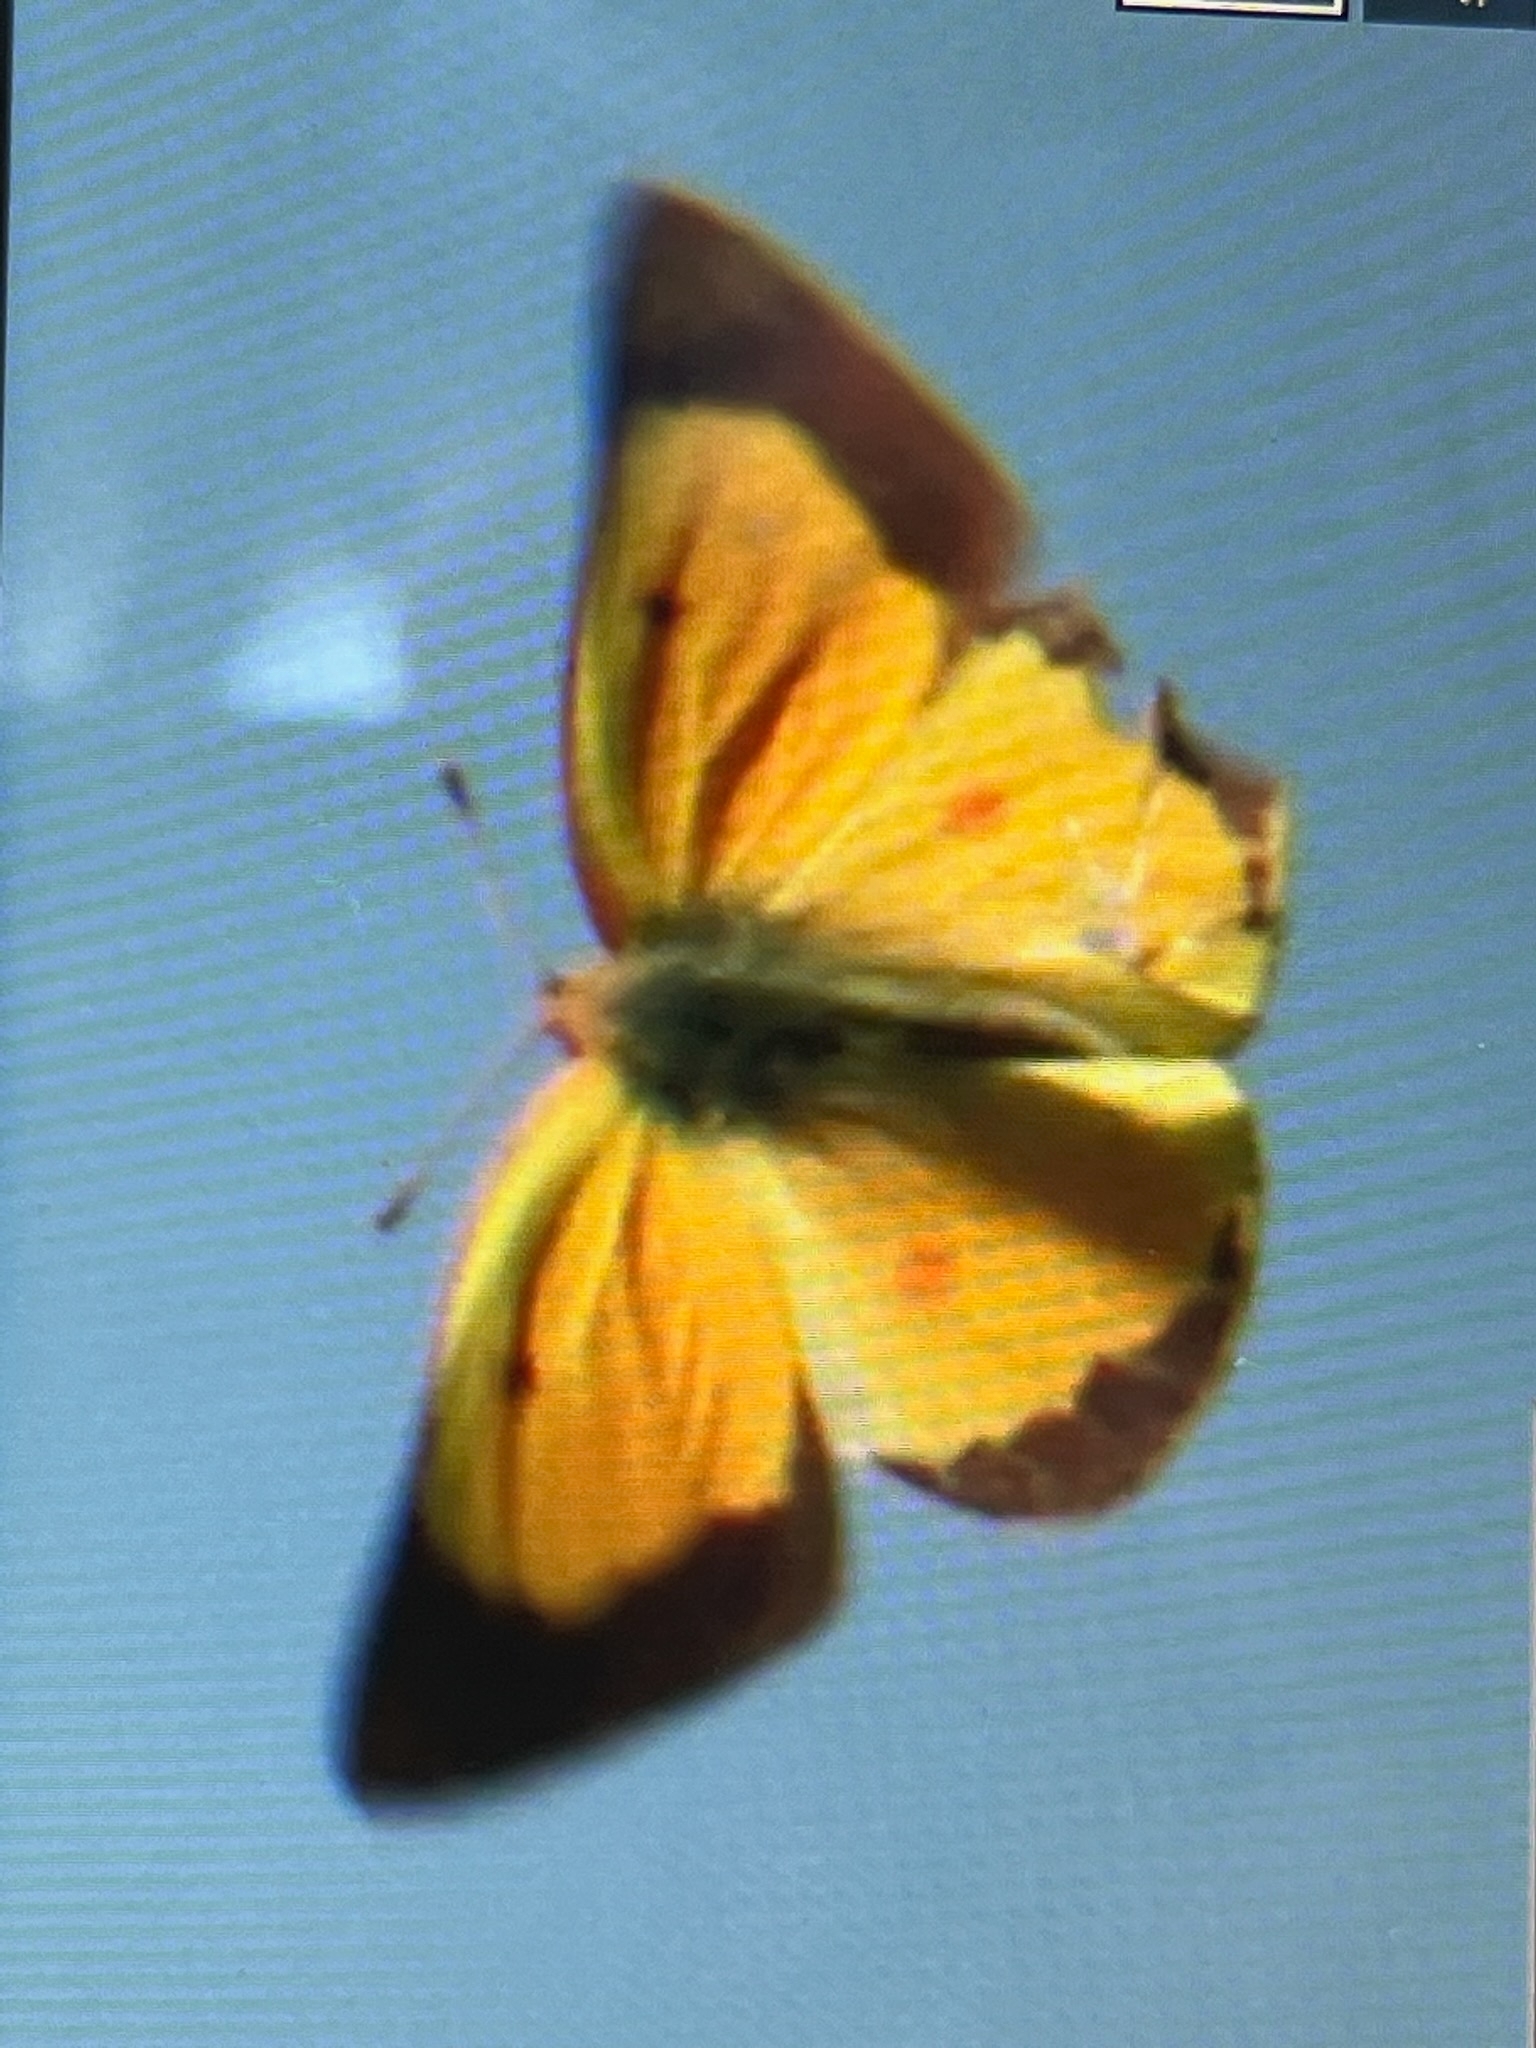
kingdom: Animalia
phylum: Arthropoda
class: Insecta
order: Lepidoptera
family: Pieridae
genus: Colias
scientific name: Colias eurytheme
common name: Alfalfa butterfly
